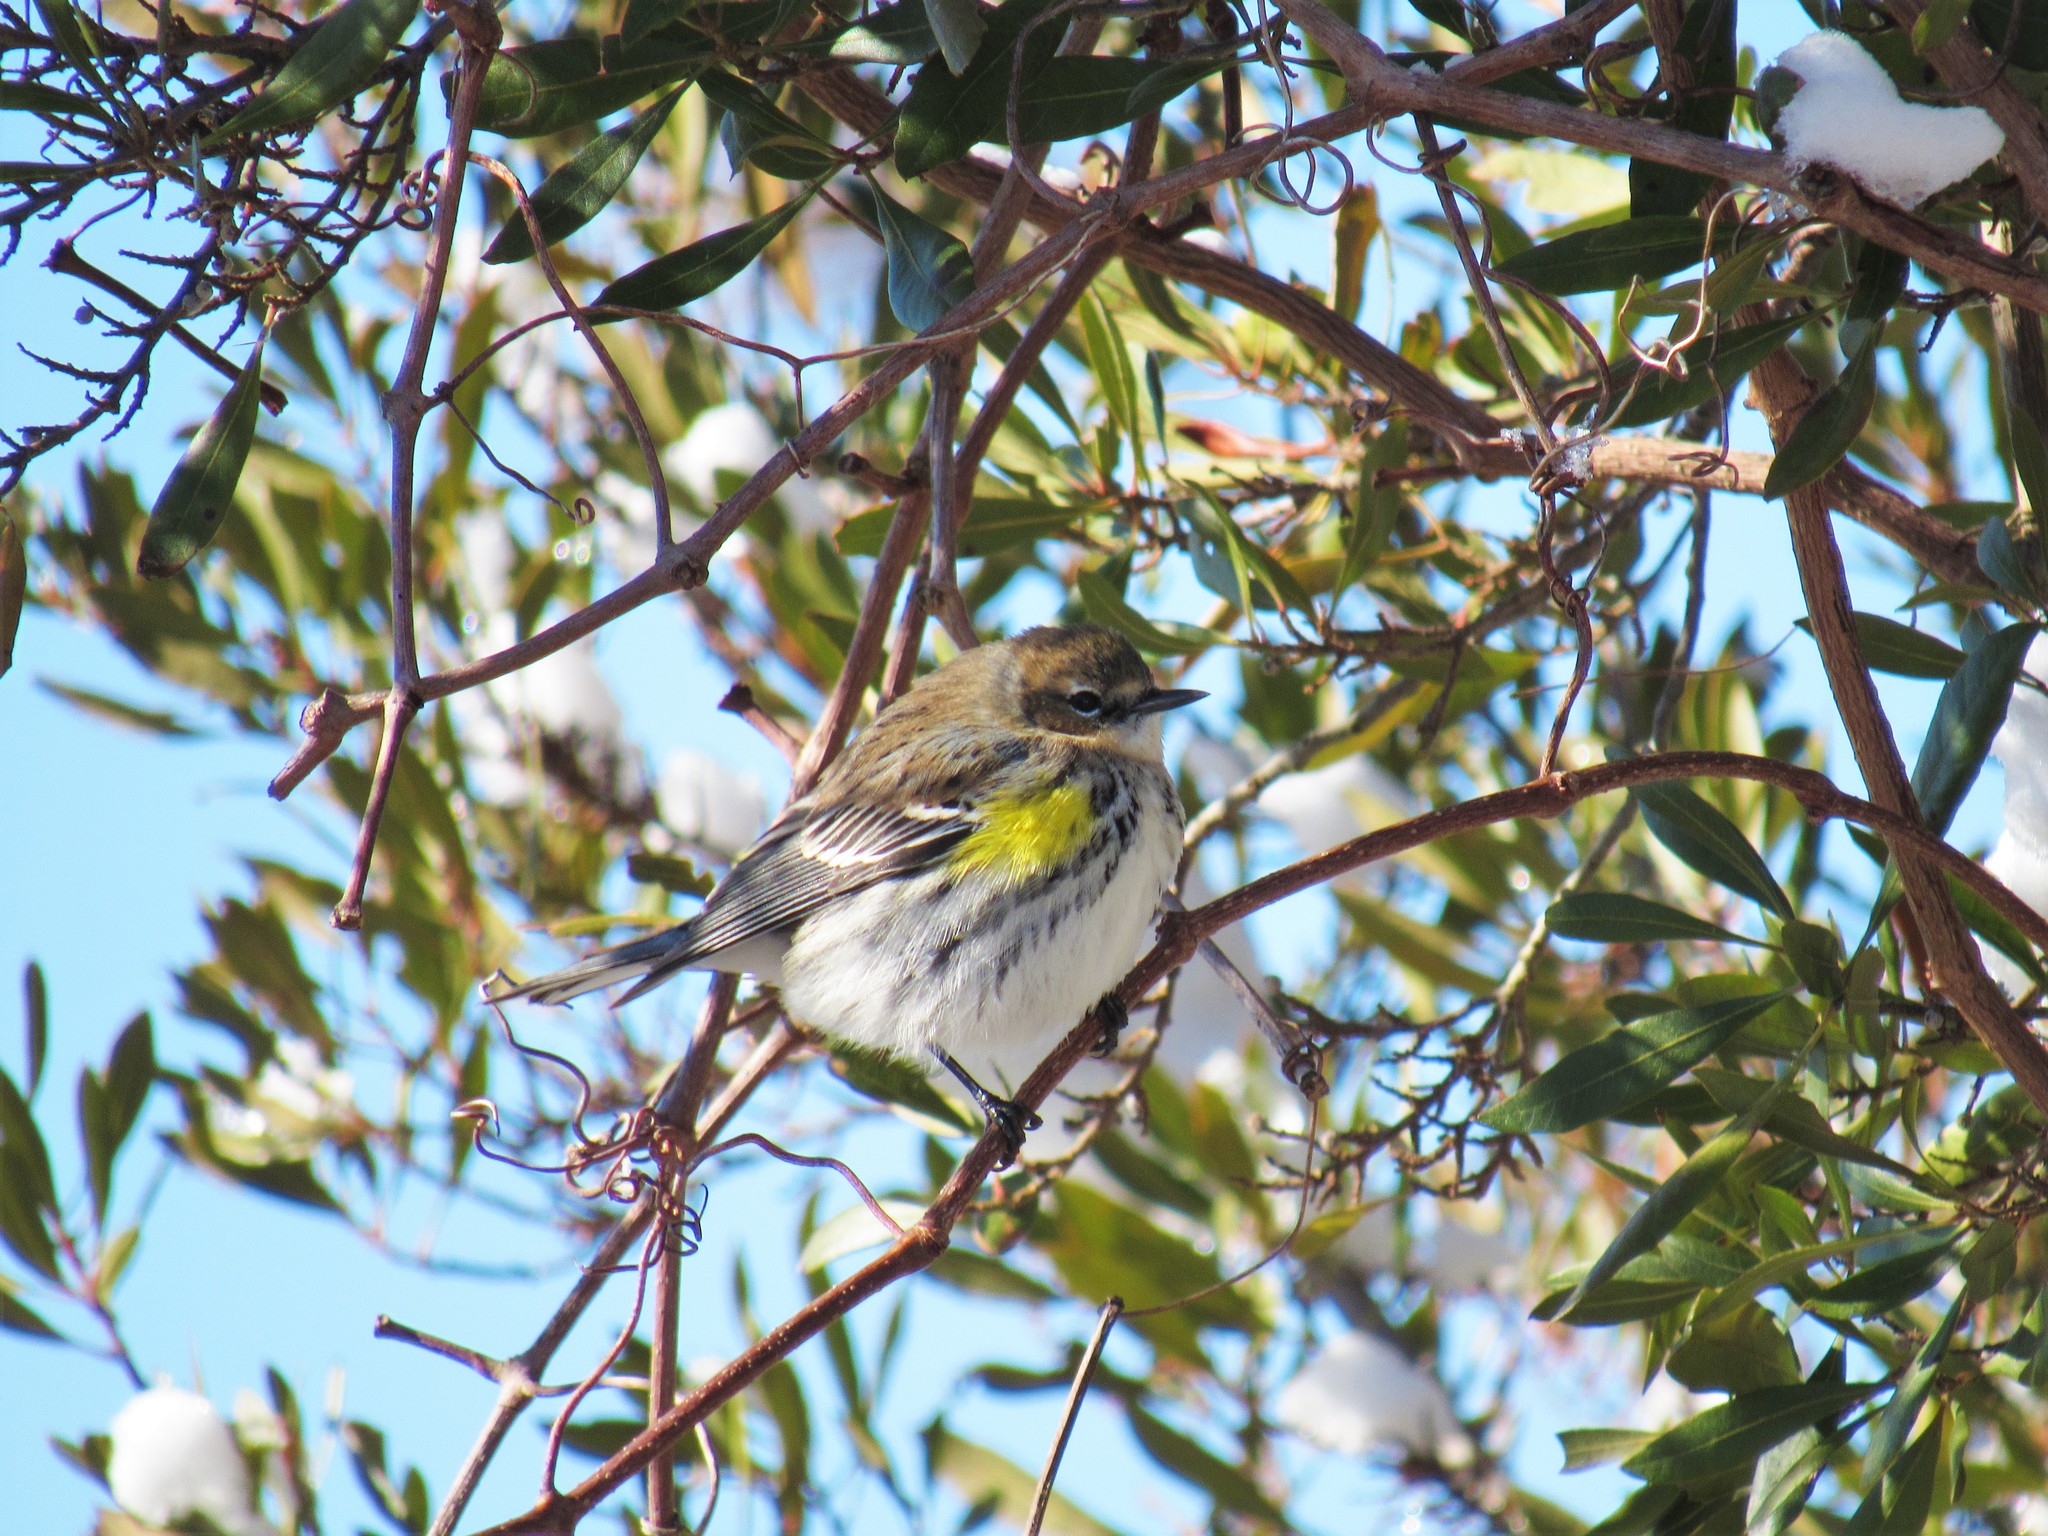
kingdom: Animalia
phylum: Chordata
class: Aves
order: Passeriformes
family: Parulidae
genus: Setophaga
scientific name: Setophaga coronata
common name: Myrtle warbler
